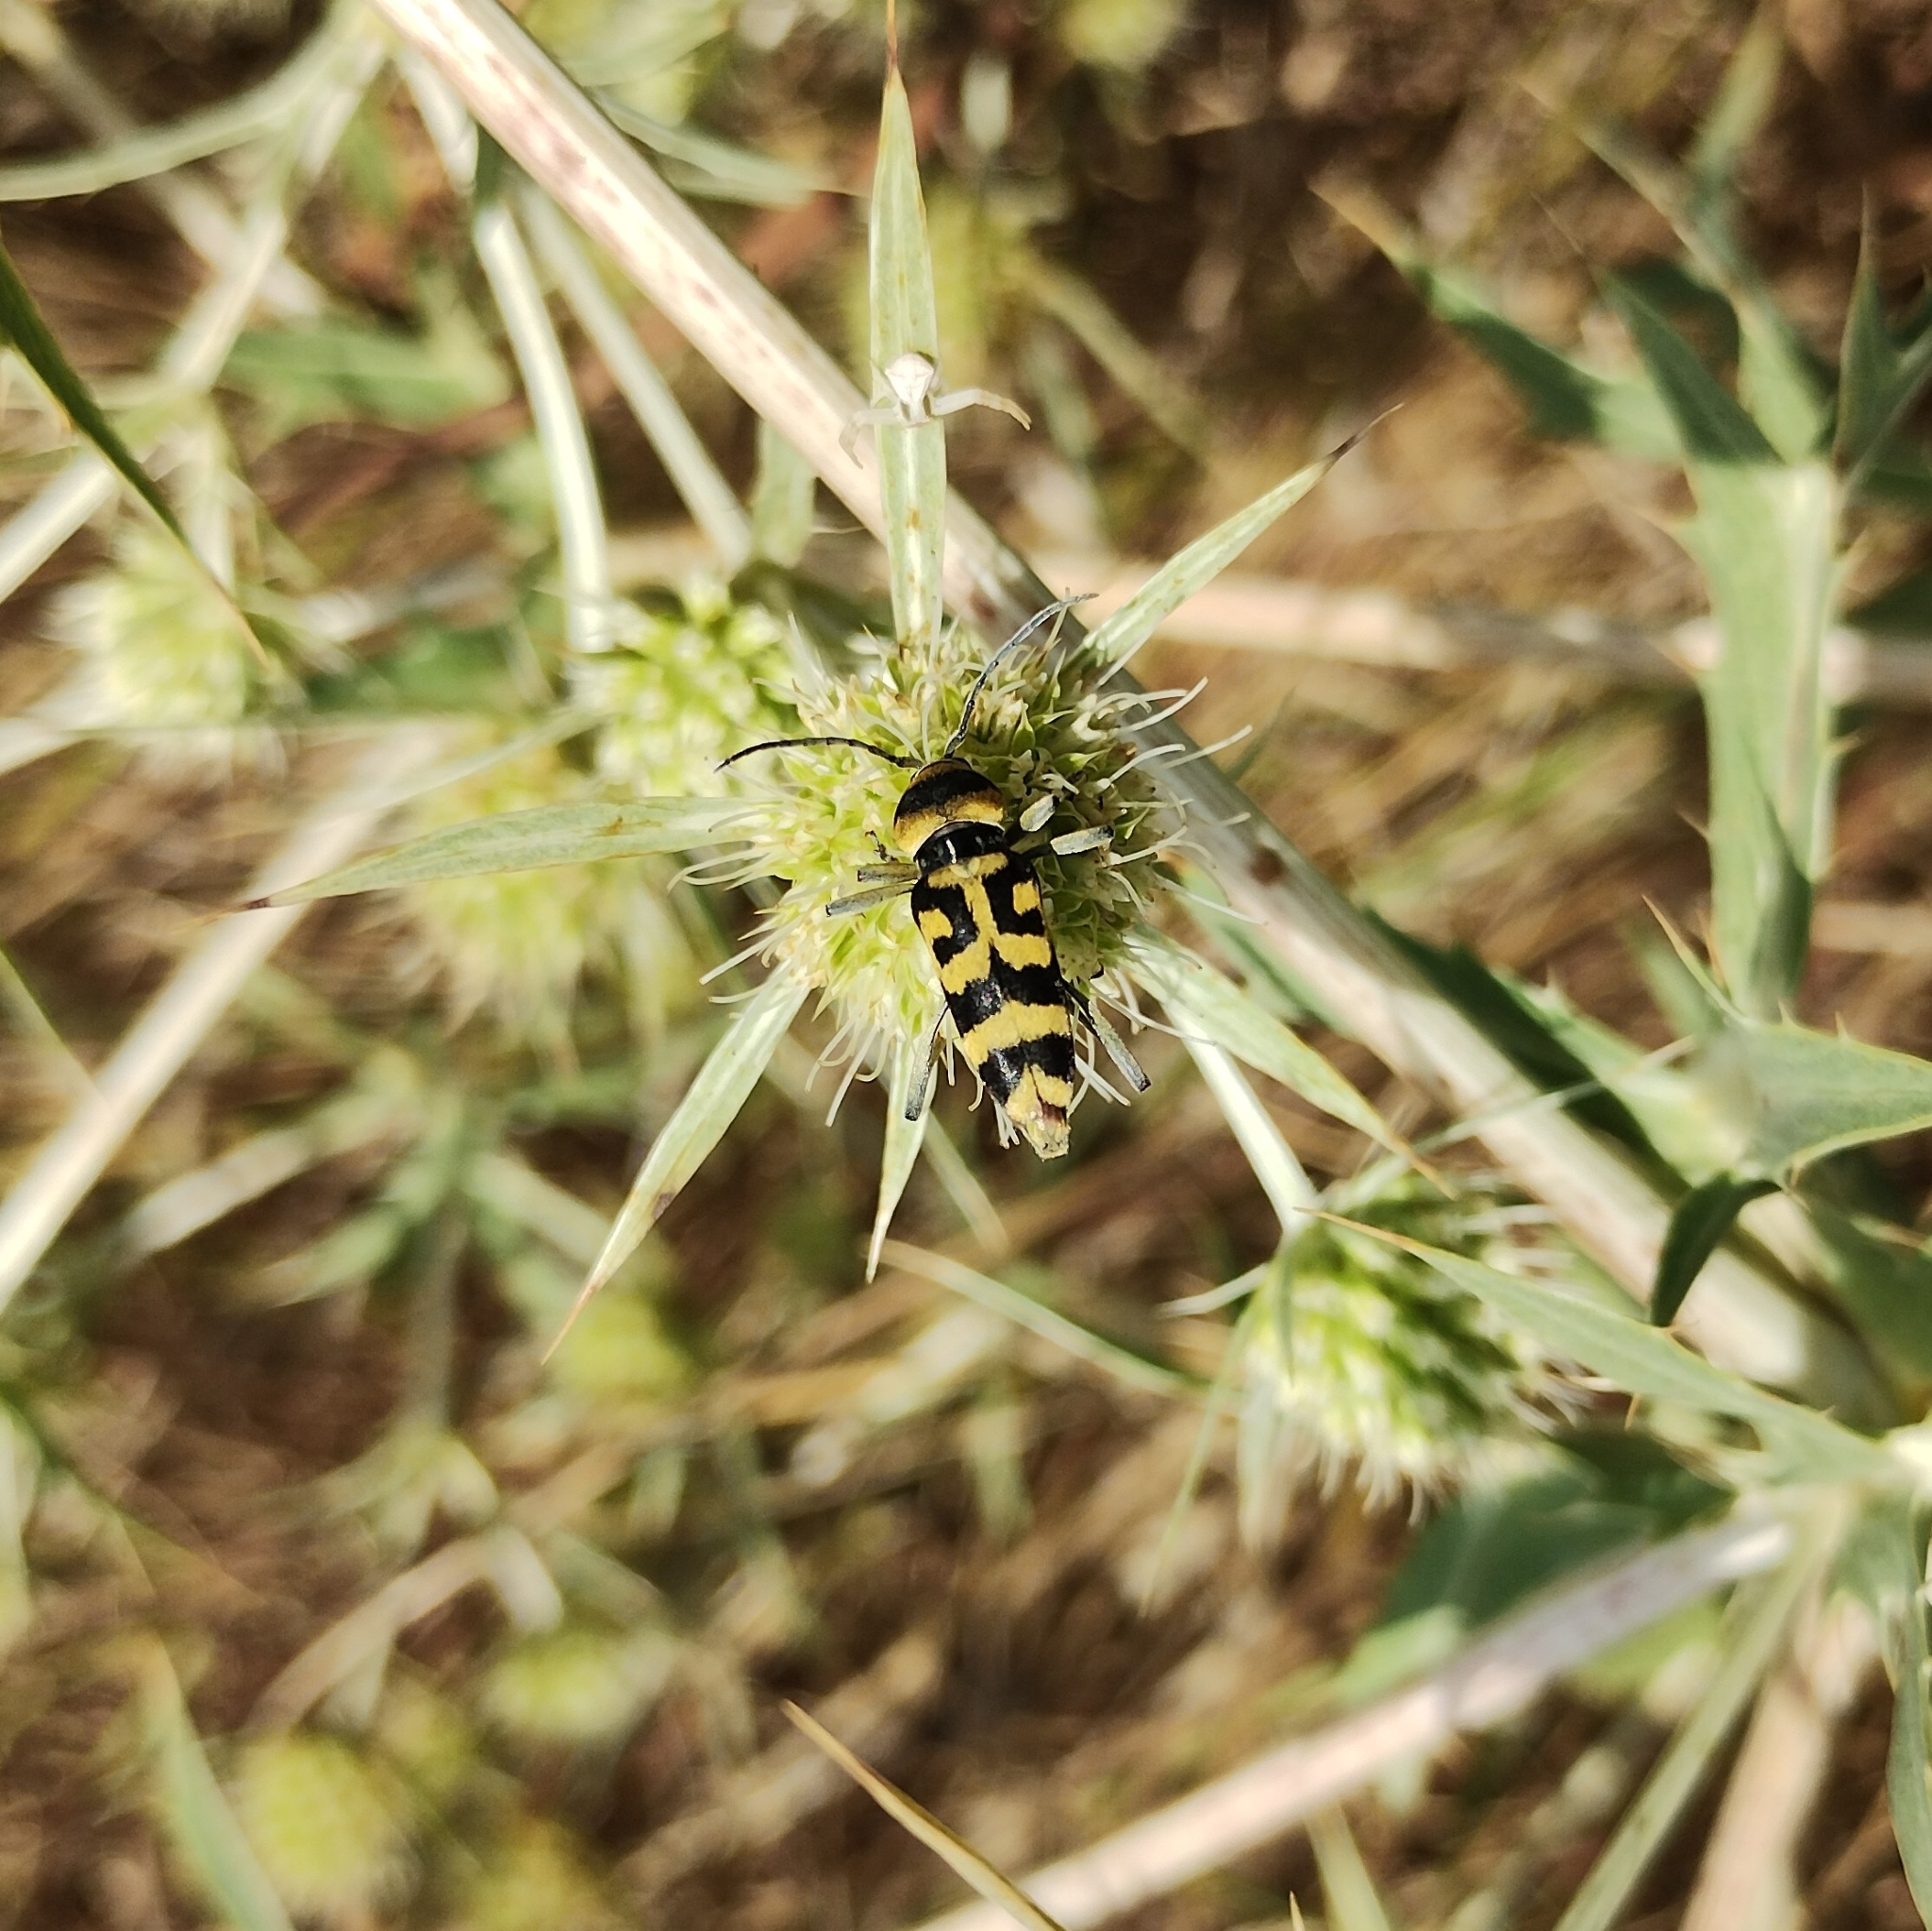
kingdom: Animalia
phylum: Arthropoda
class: Insecta
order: Coleoptera
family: Cerambycidae
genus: Chlorophorus
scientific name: Chlorophorus varius
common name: Grape wood borer
